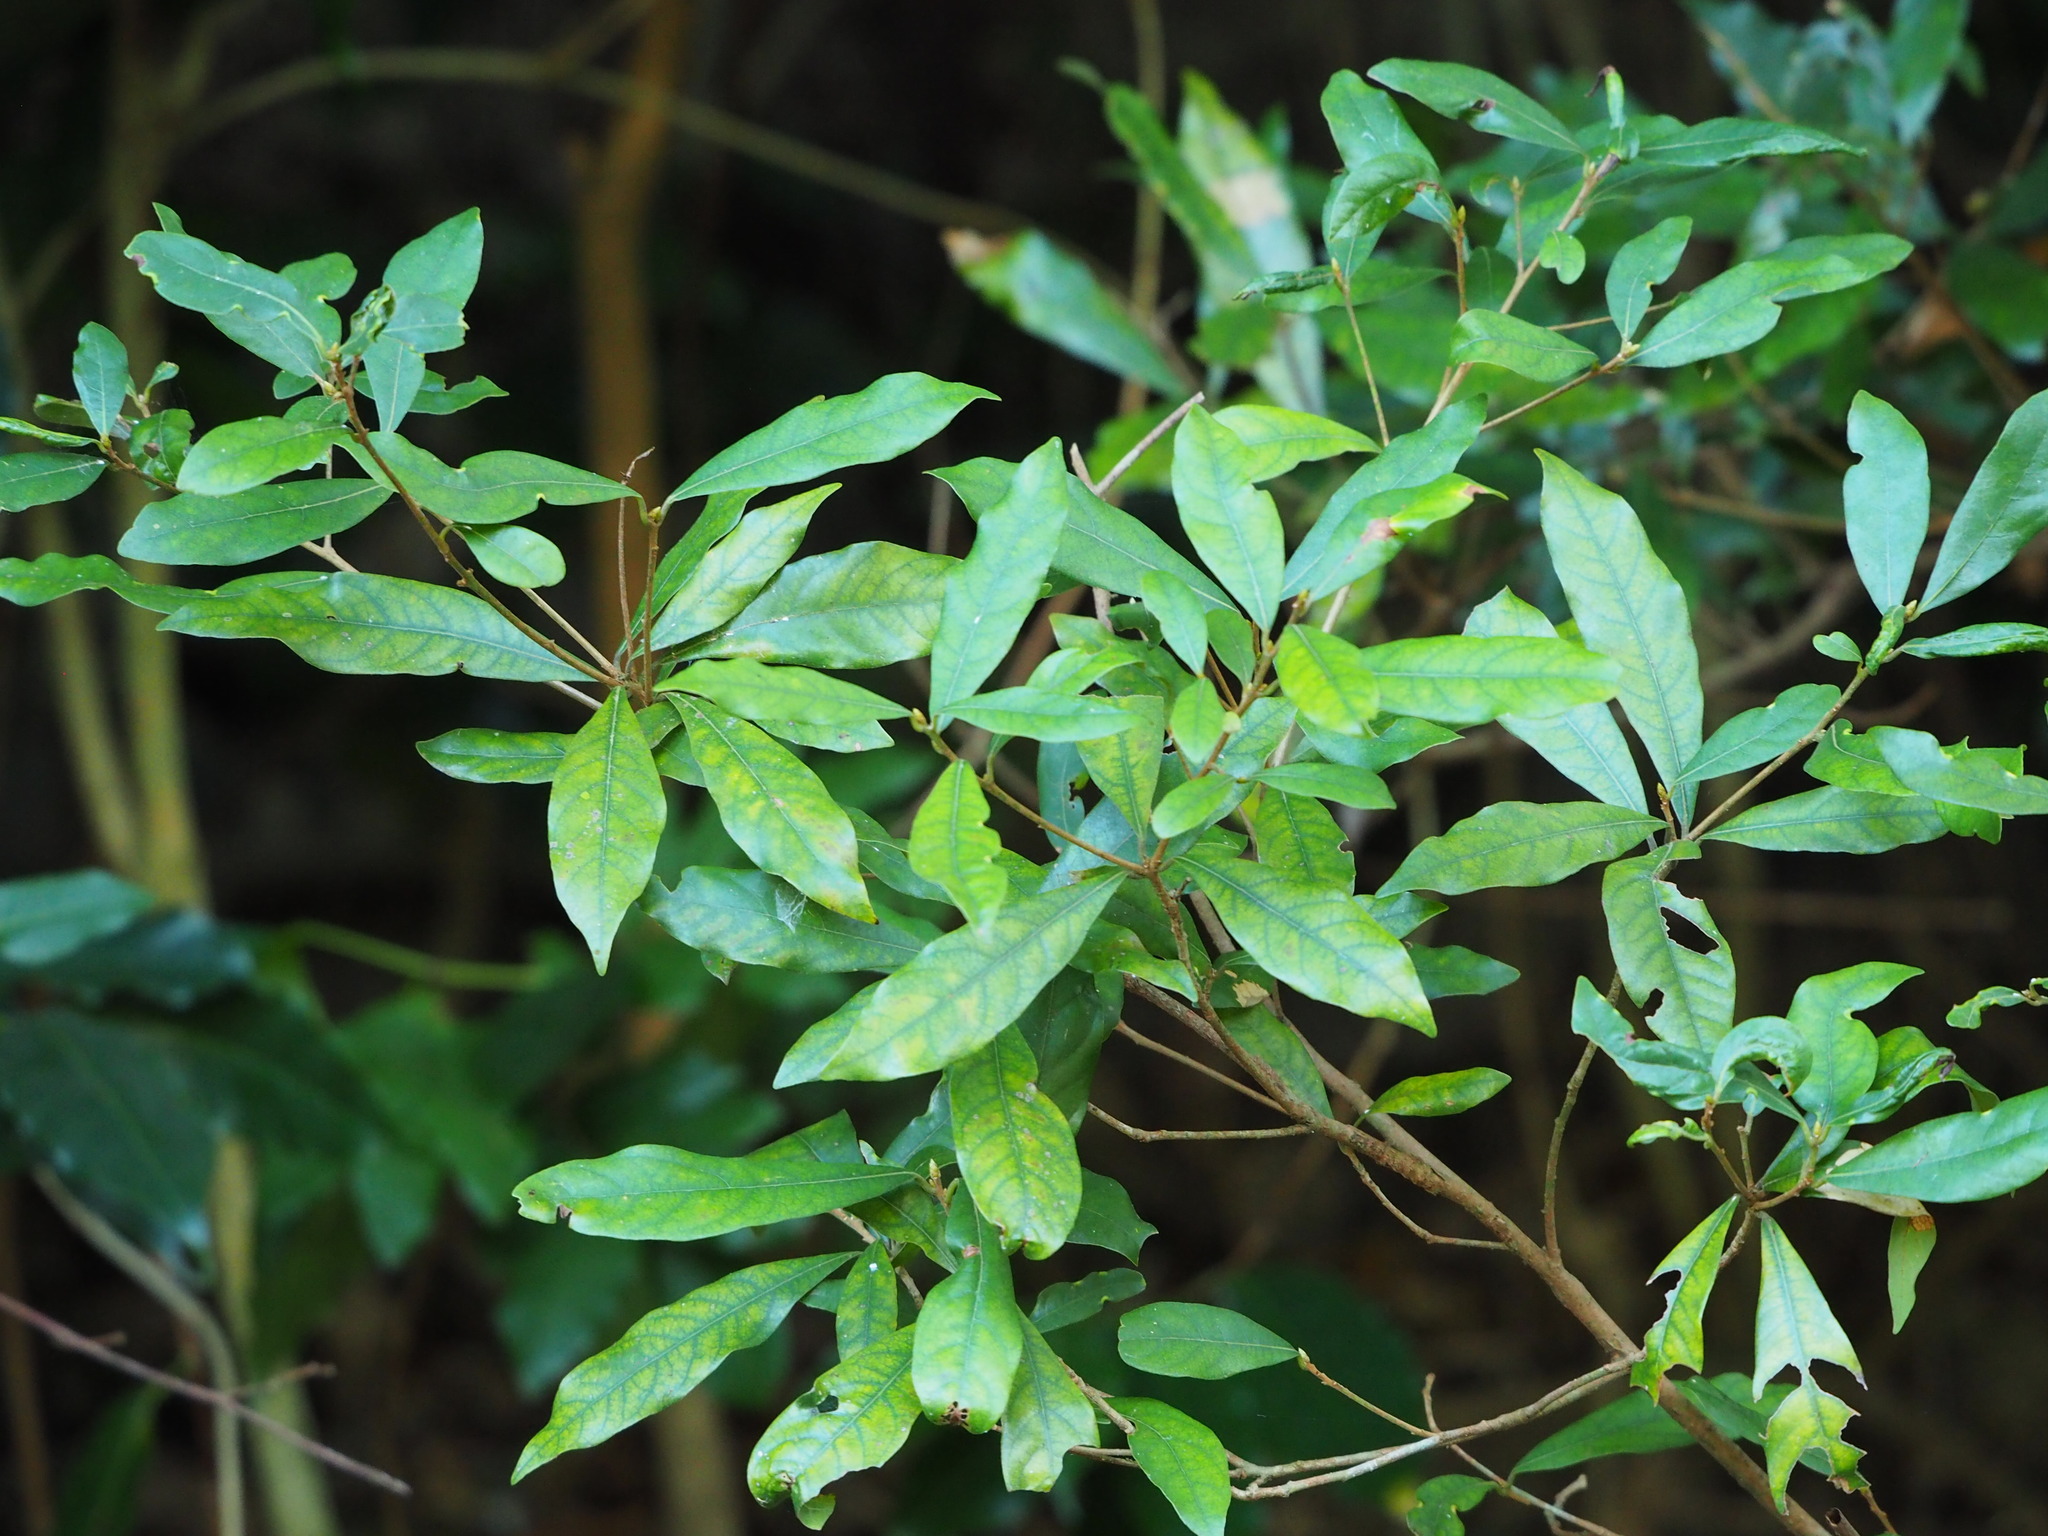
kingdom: Plantae
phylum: Tracheophyta
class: Magnoliopsida
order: Laurales
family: Lauraceae
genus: Litsea
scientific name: Litsea hypophaea
